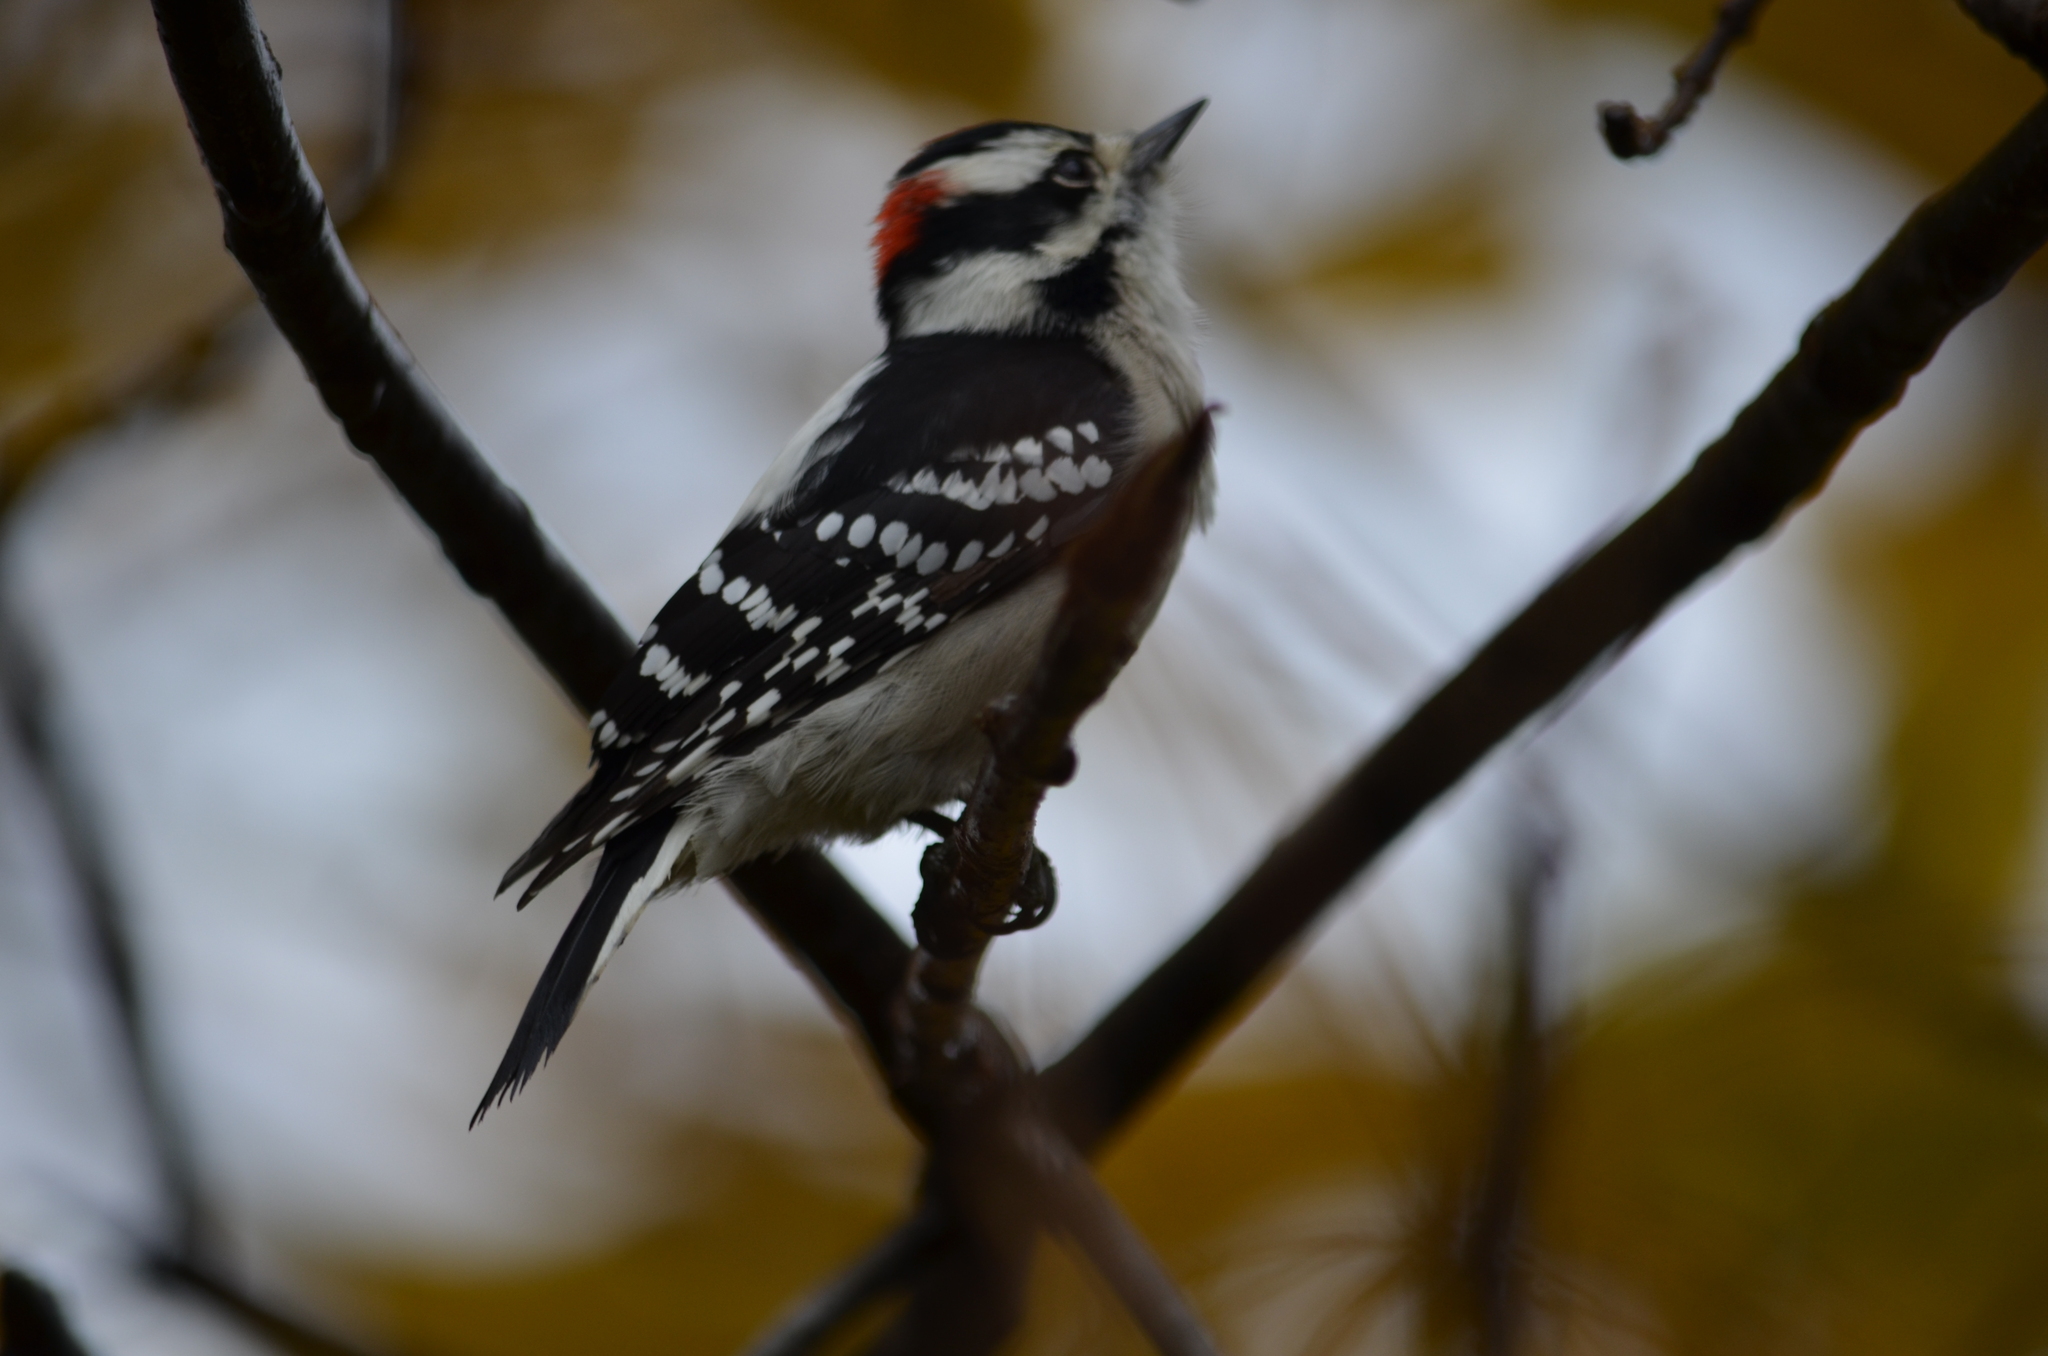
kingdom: Animalia
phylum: Chordata
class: Aves
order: Piciformes
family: Picidae
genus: Dryobates
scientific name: Dryobates pubescens
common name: Downy woodpecker
